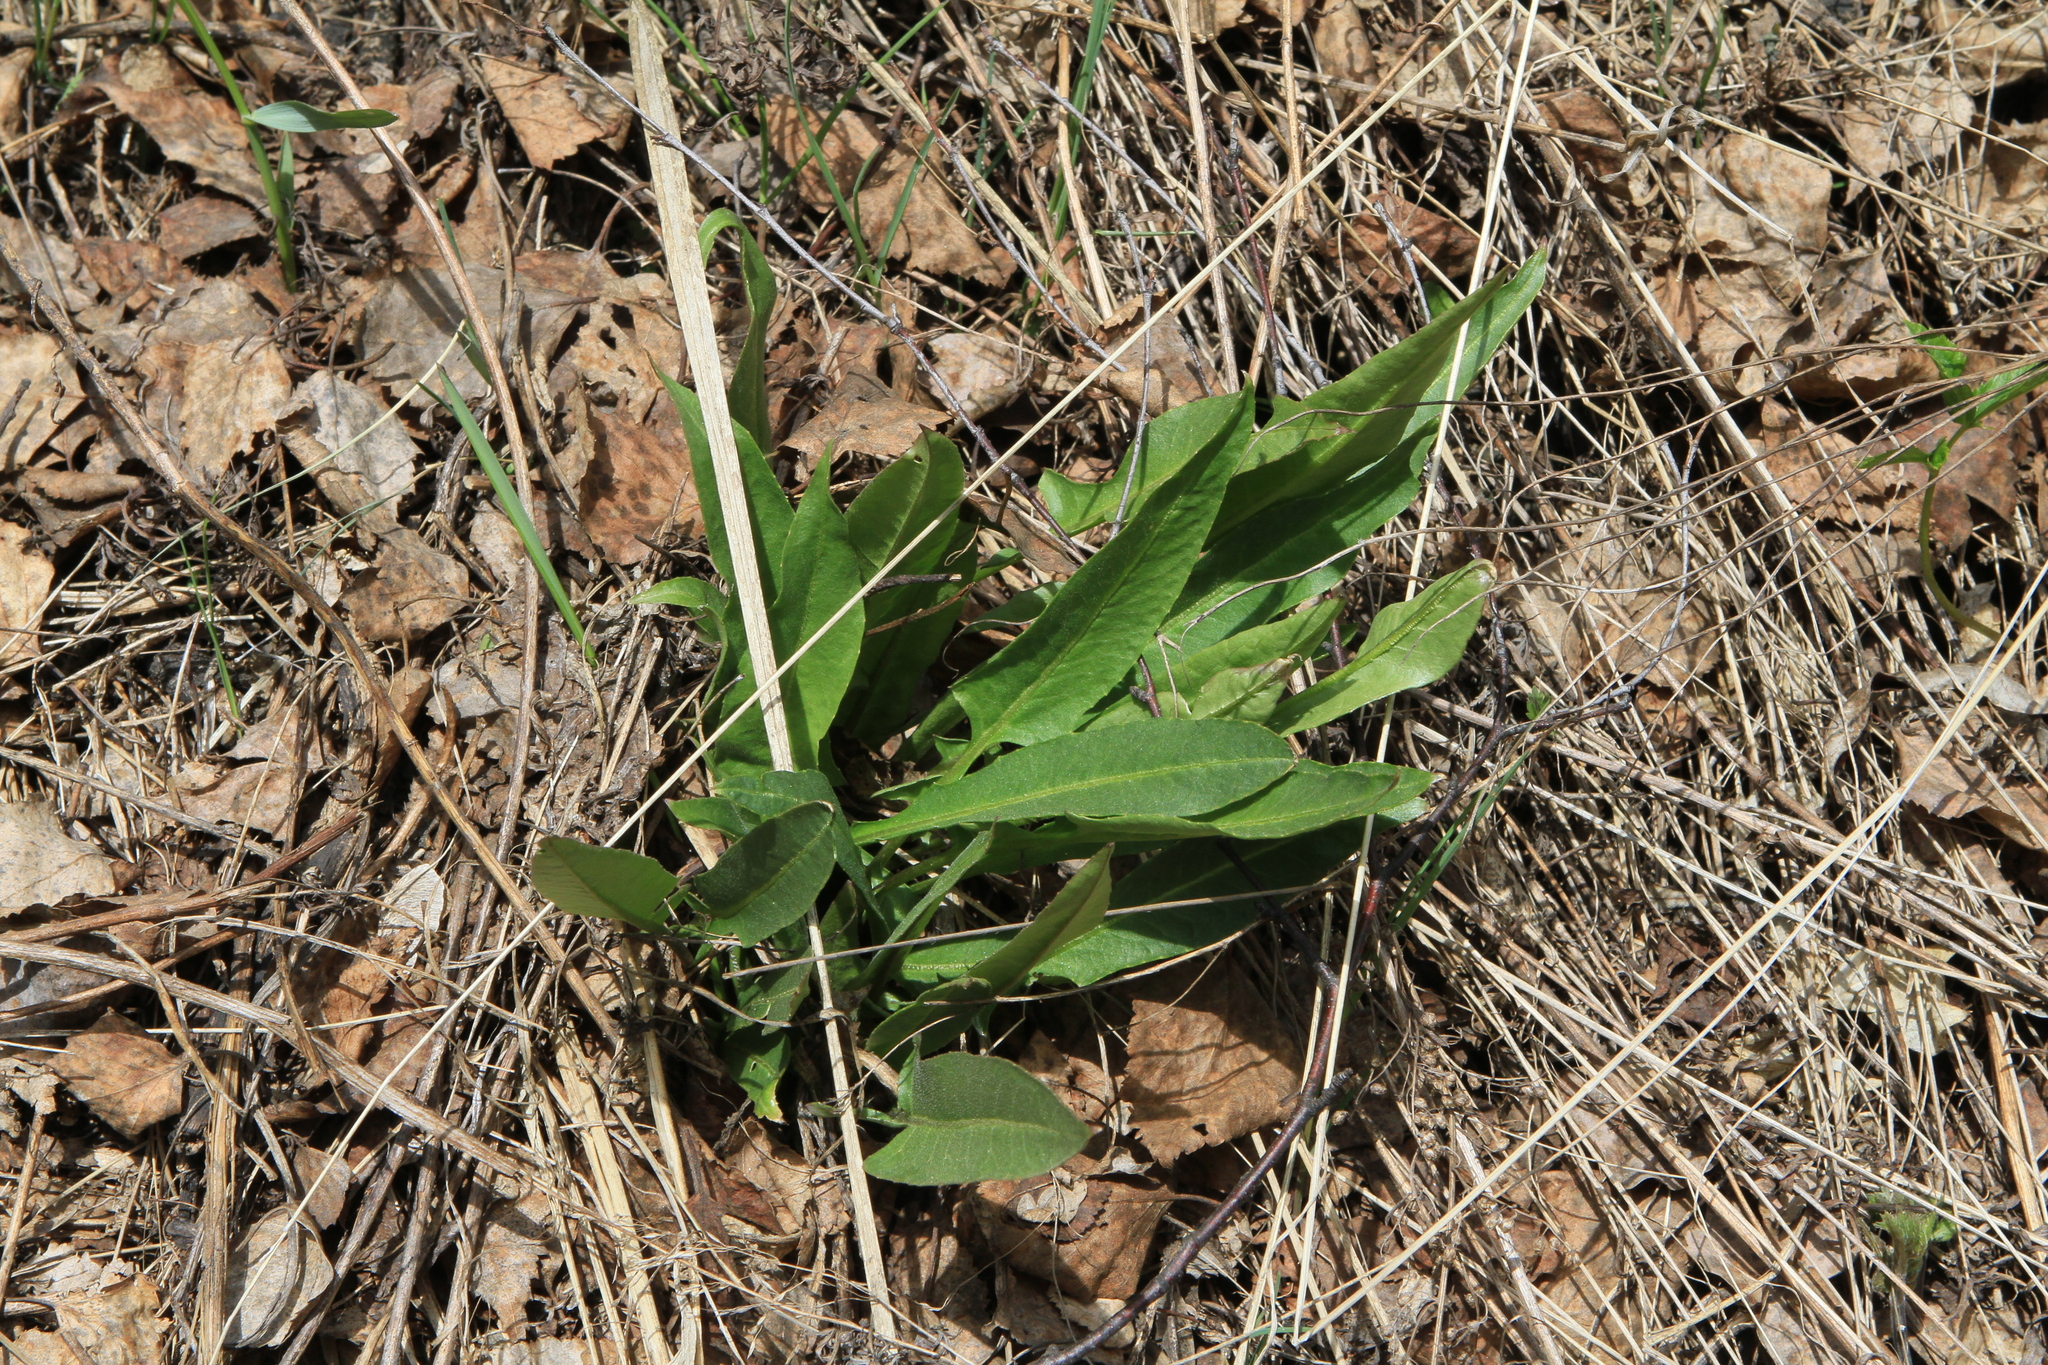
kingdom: Plantae
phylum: Tracheophyta
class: Magnoliopsida
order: Brassicales
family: Brassicaceae
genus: Bunias
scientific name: Bunias orientalis
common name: Warty-cabbage
